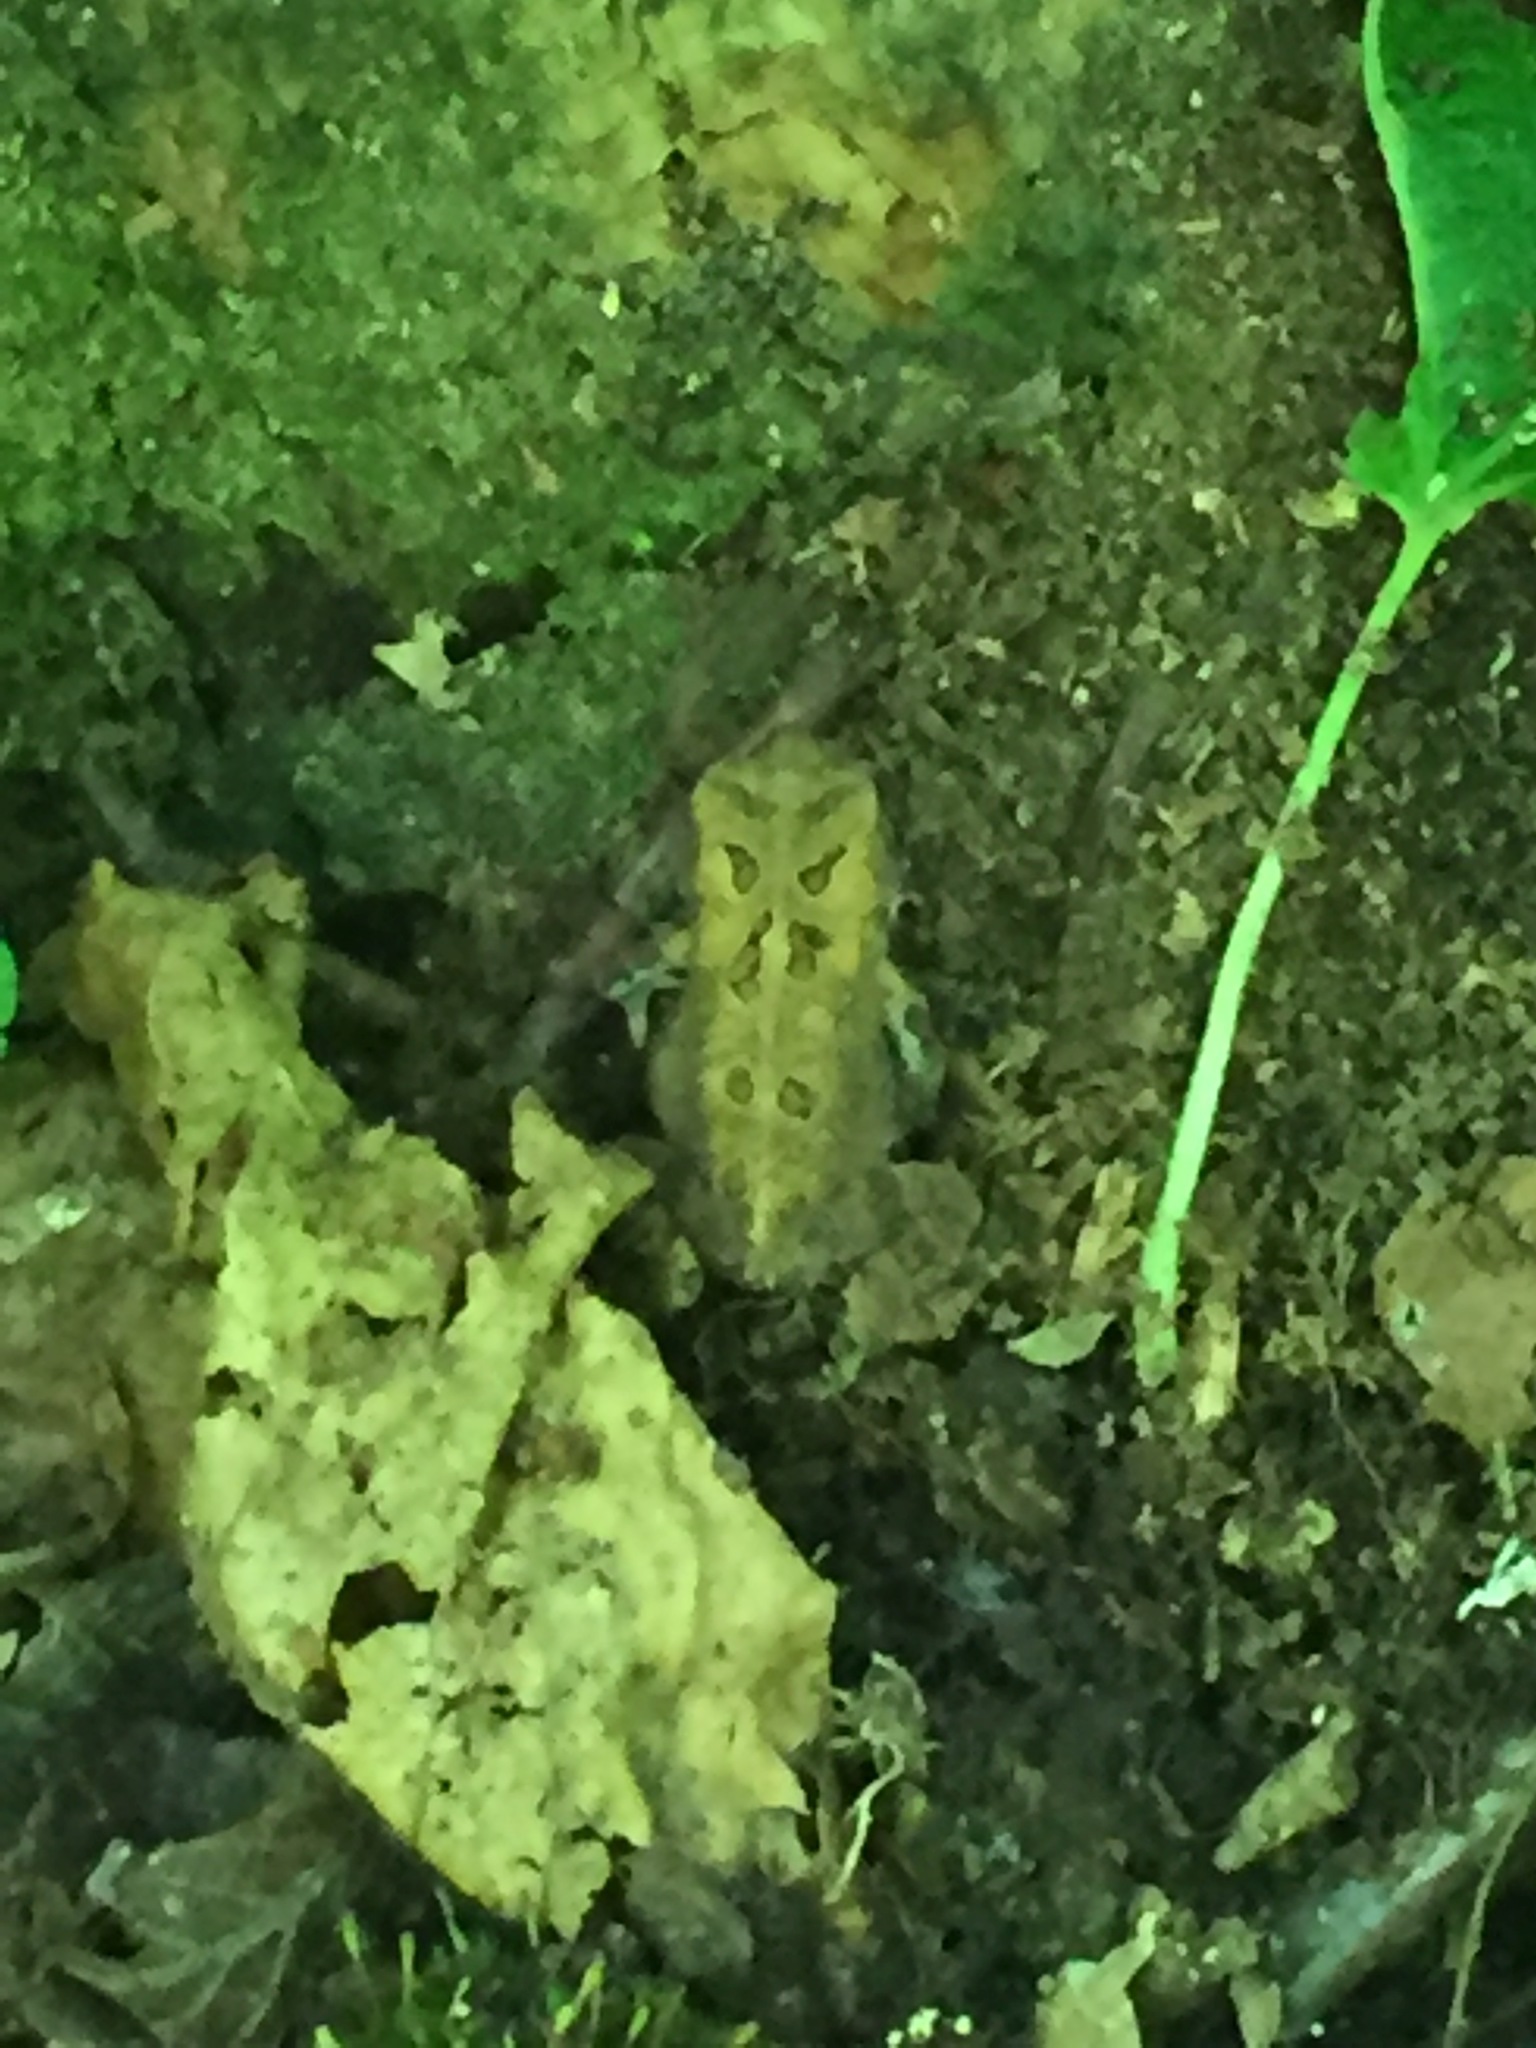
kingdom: Animalia
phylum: Chordata
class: Amphibia
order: Anura
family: Bufonidae
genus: Anaxyrus
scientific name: Anaxyrus americanus
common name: American toad
